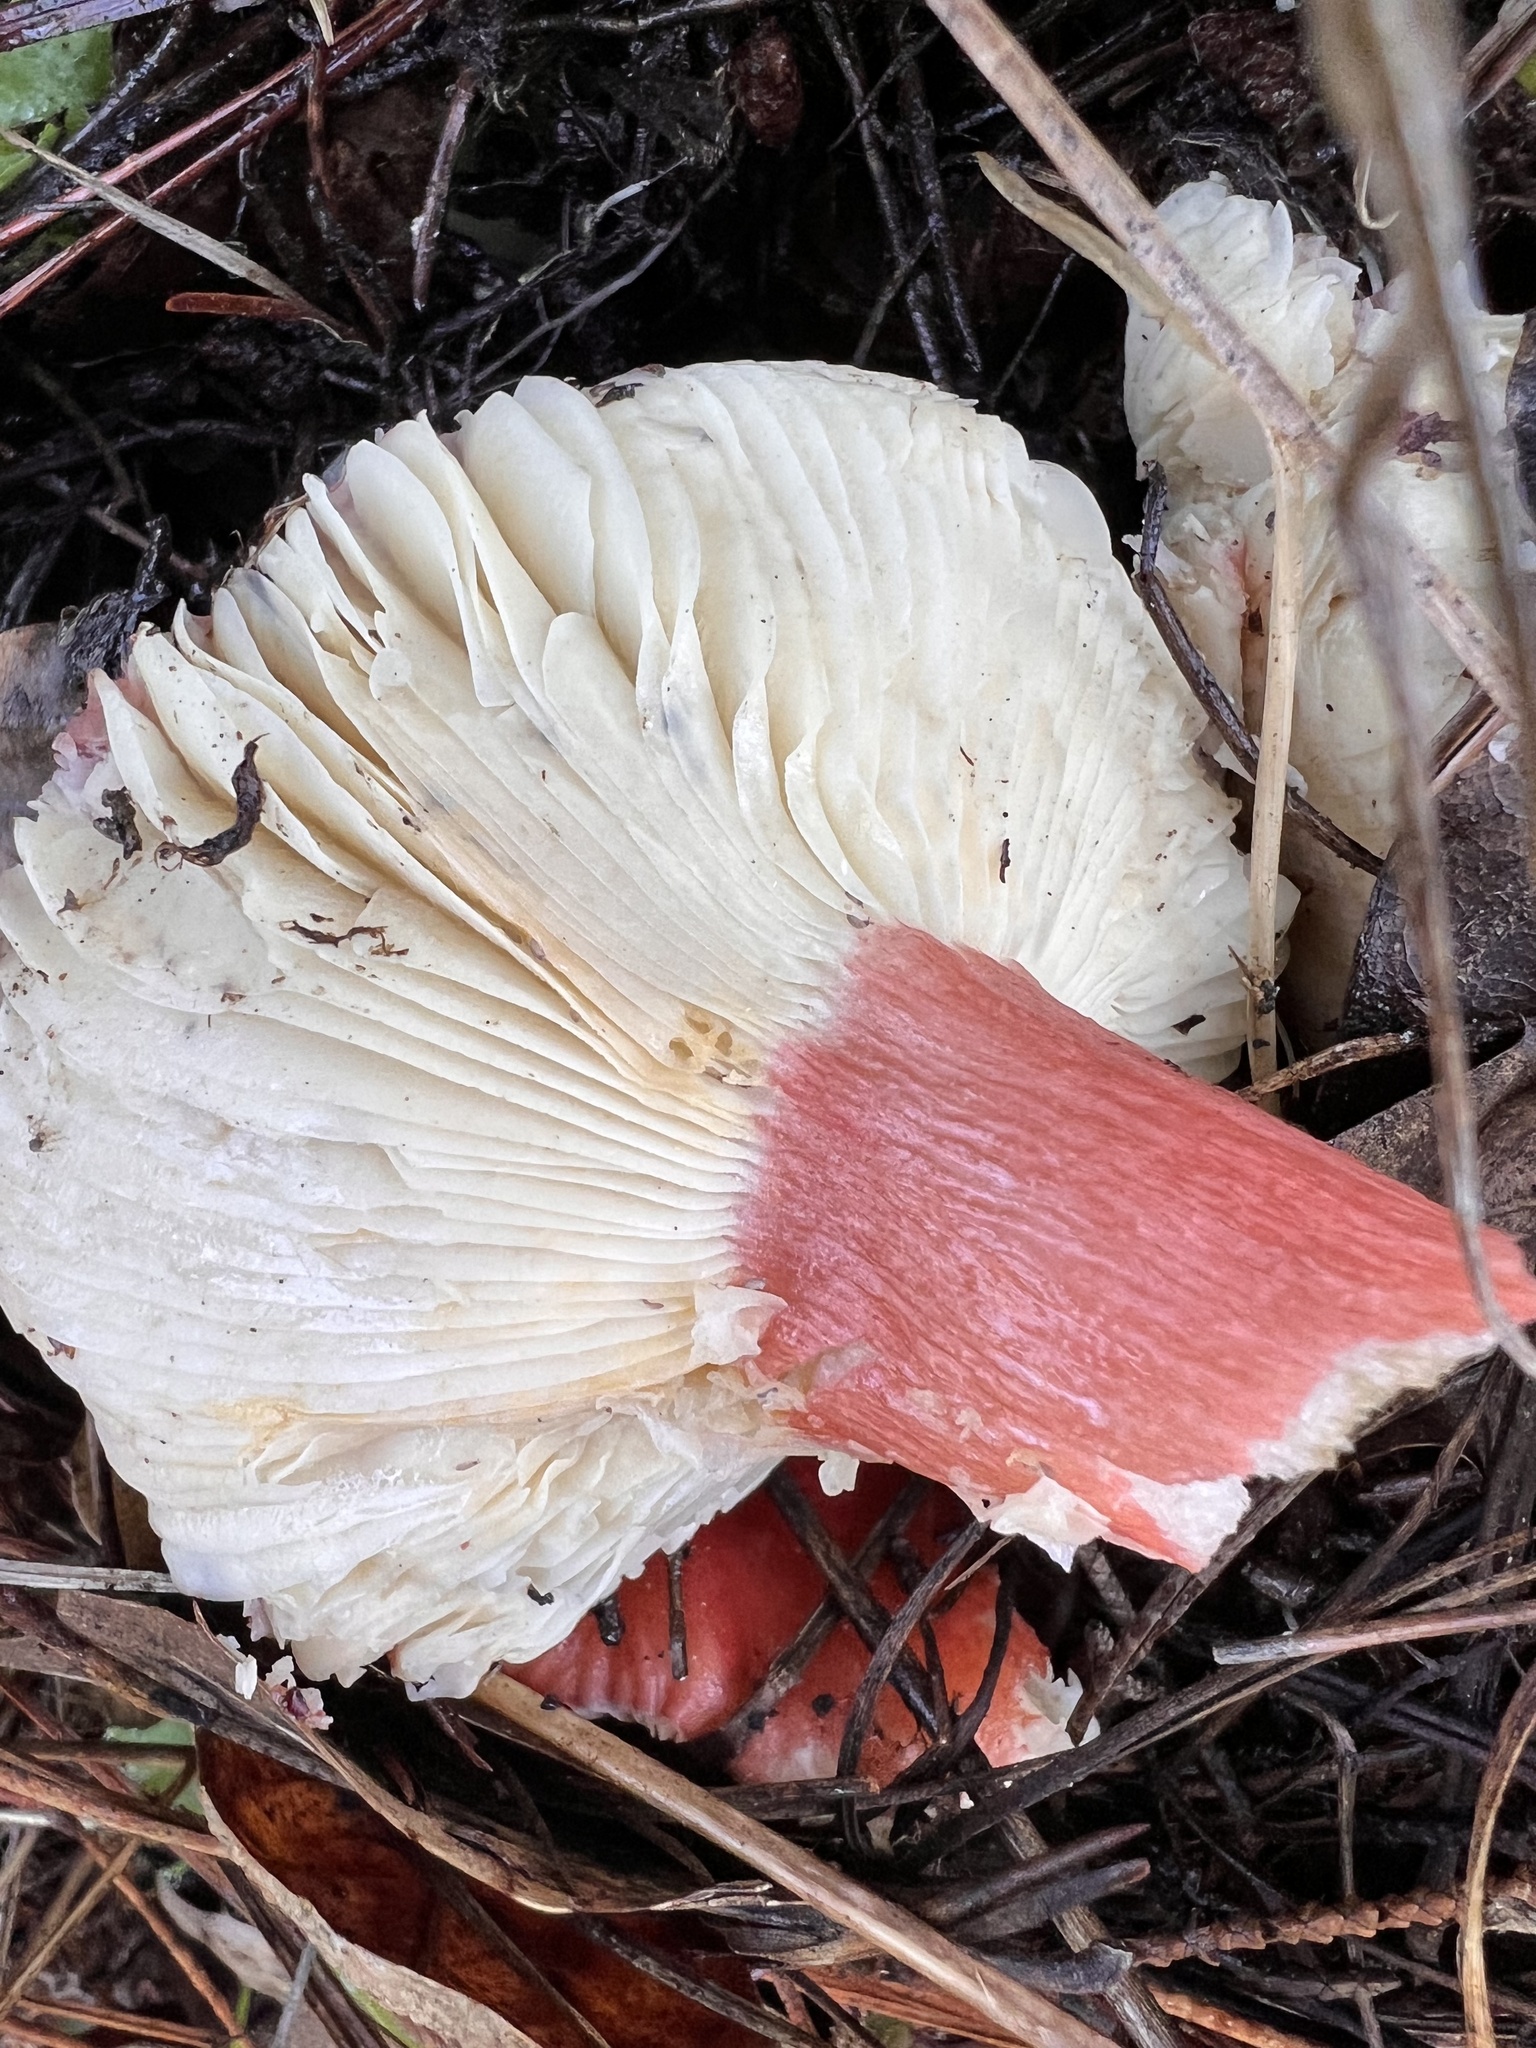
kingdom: Fungi
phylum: Basidiomycota
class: Agaricomycetes
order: Russulales
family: Russulaceae
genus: Russula
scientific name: Russula rhodocephala
